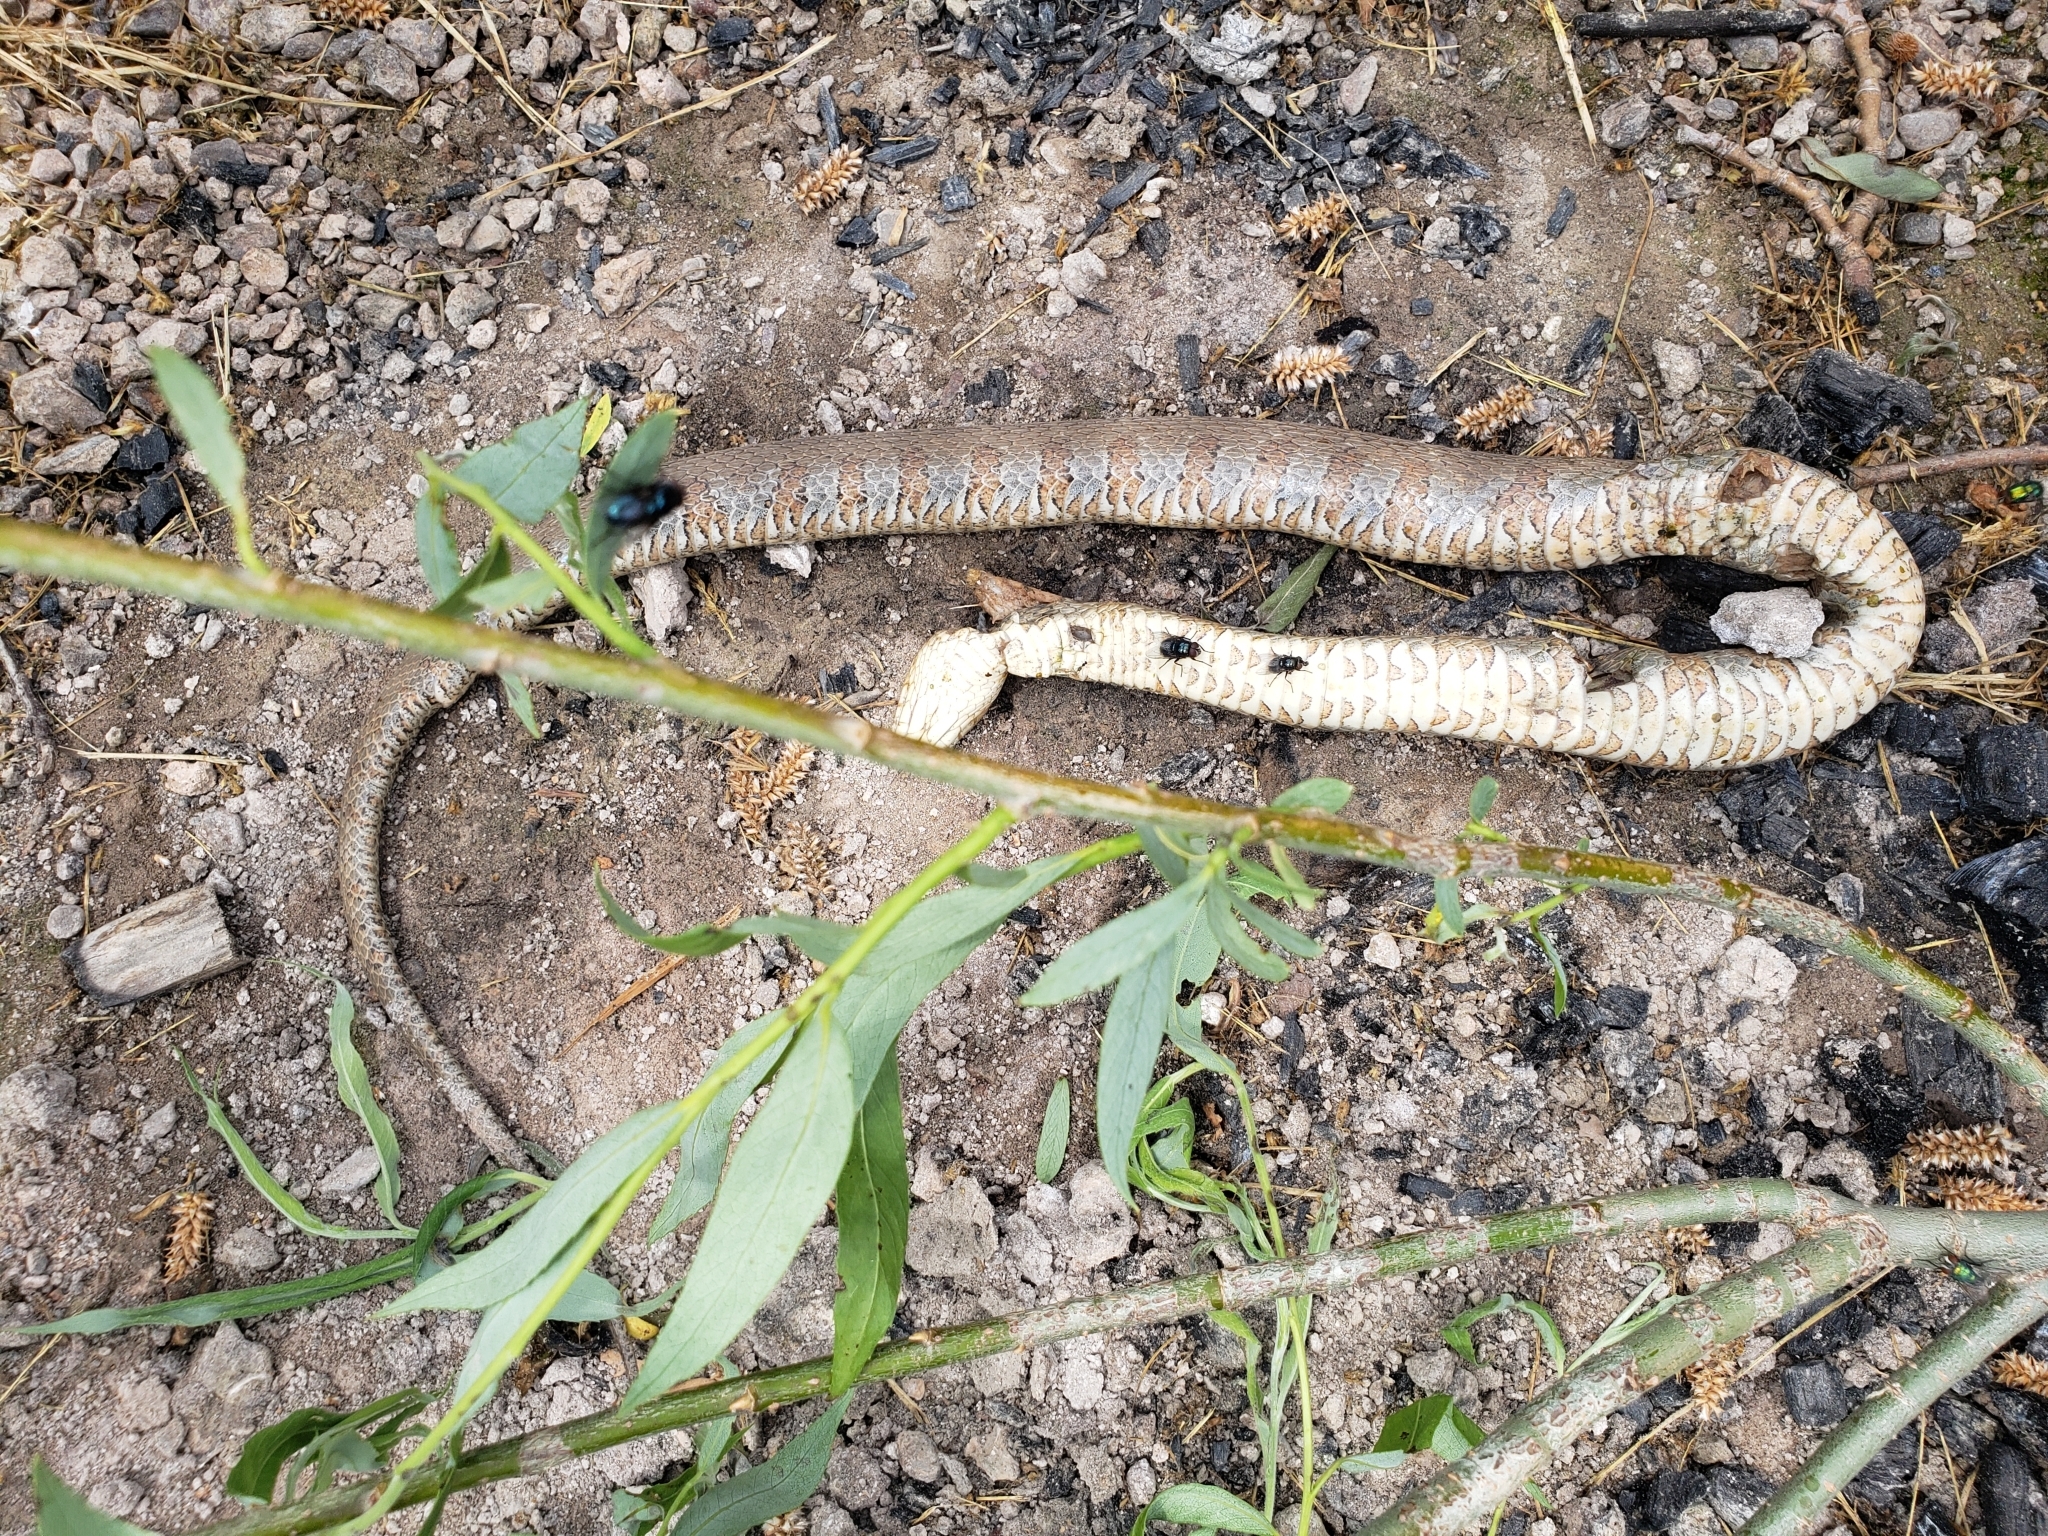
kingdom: Animalia
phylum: Chordata
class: Squamata
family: Colubridae
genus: Nerodia
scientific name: Nerodia sipedon
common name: Northern water snake
